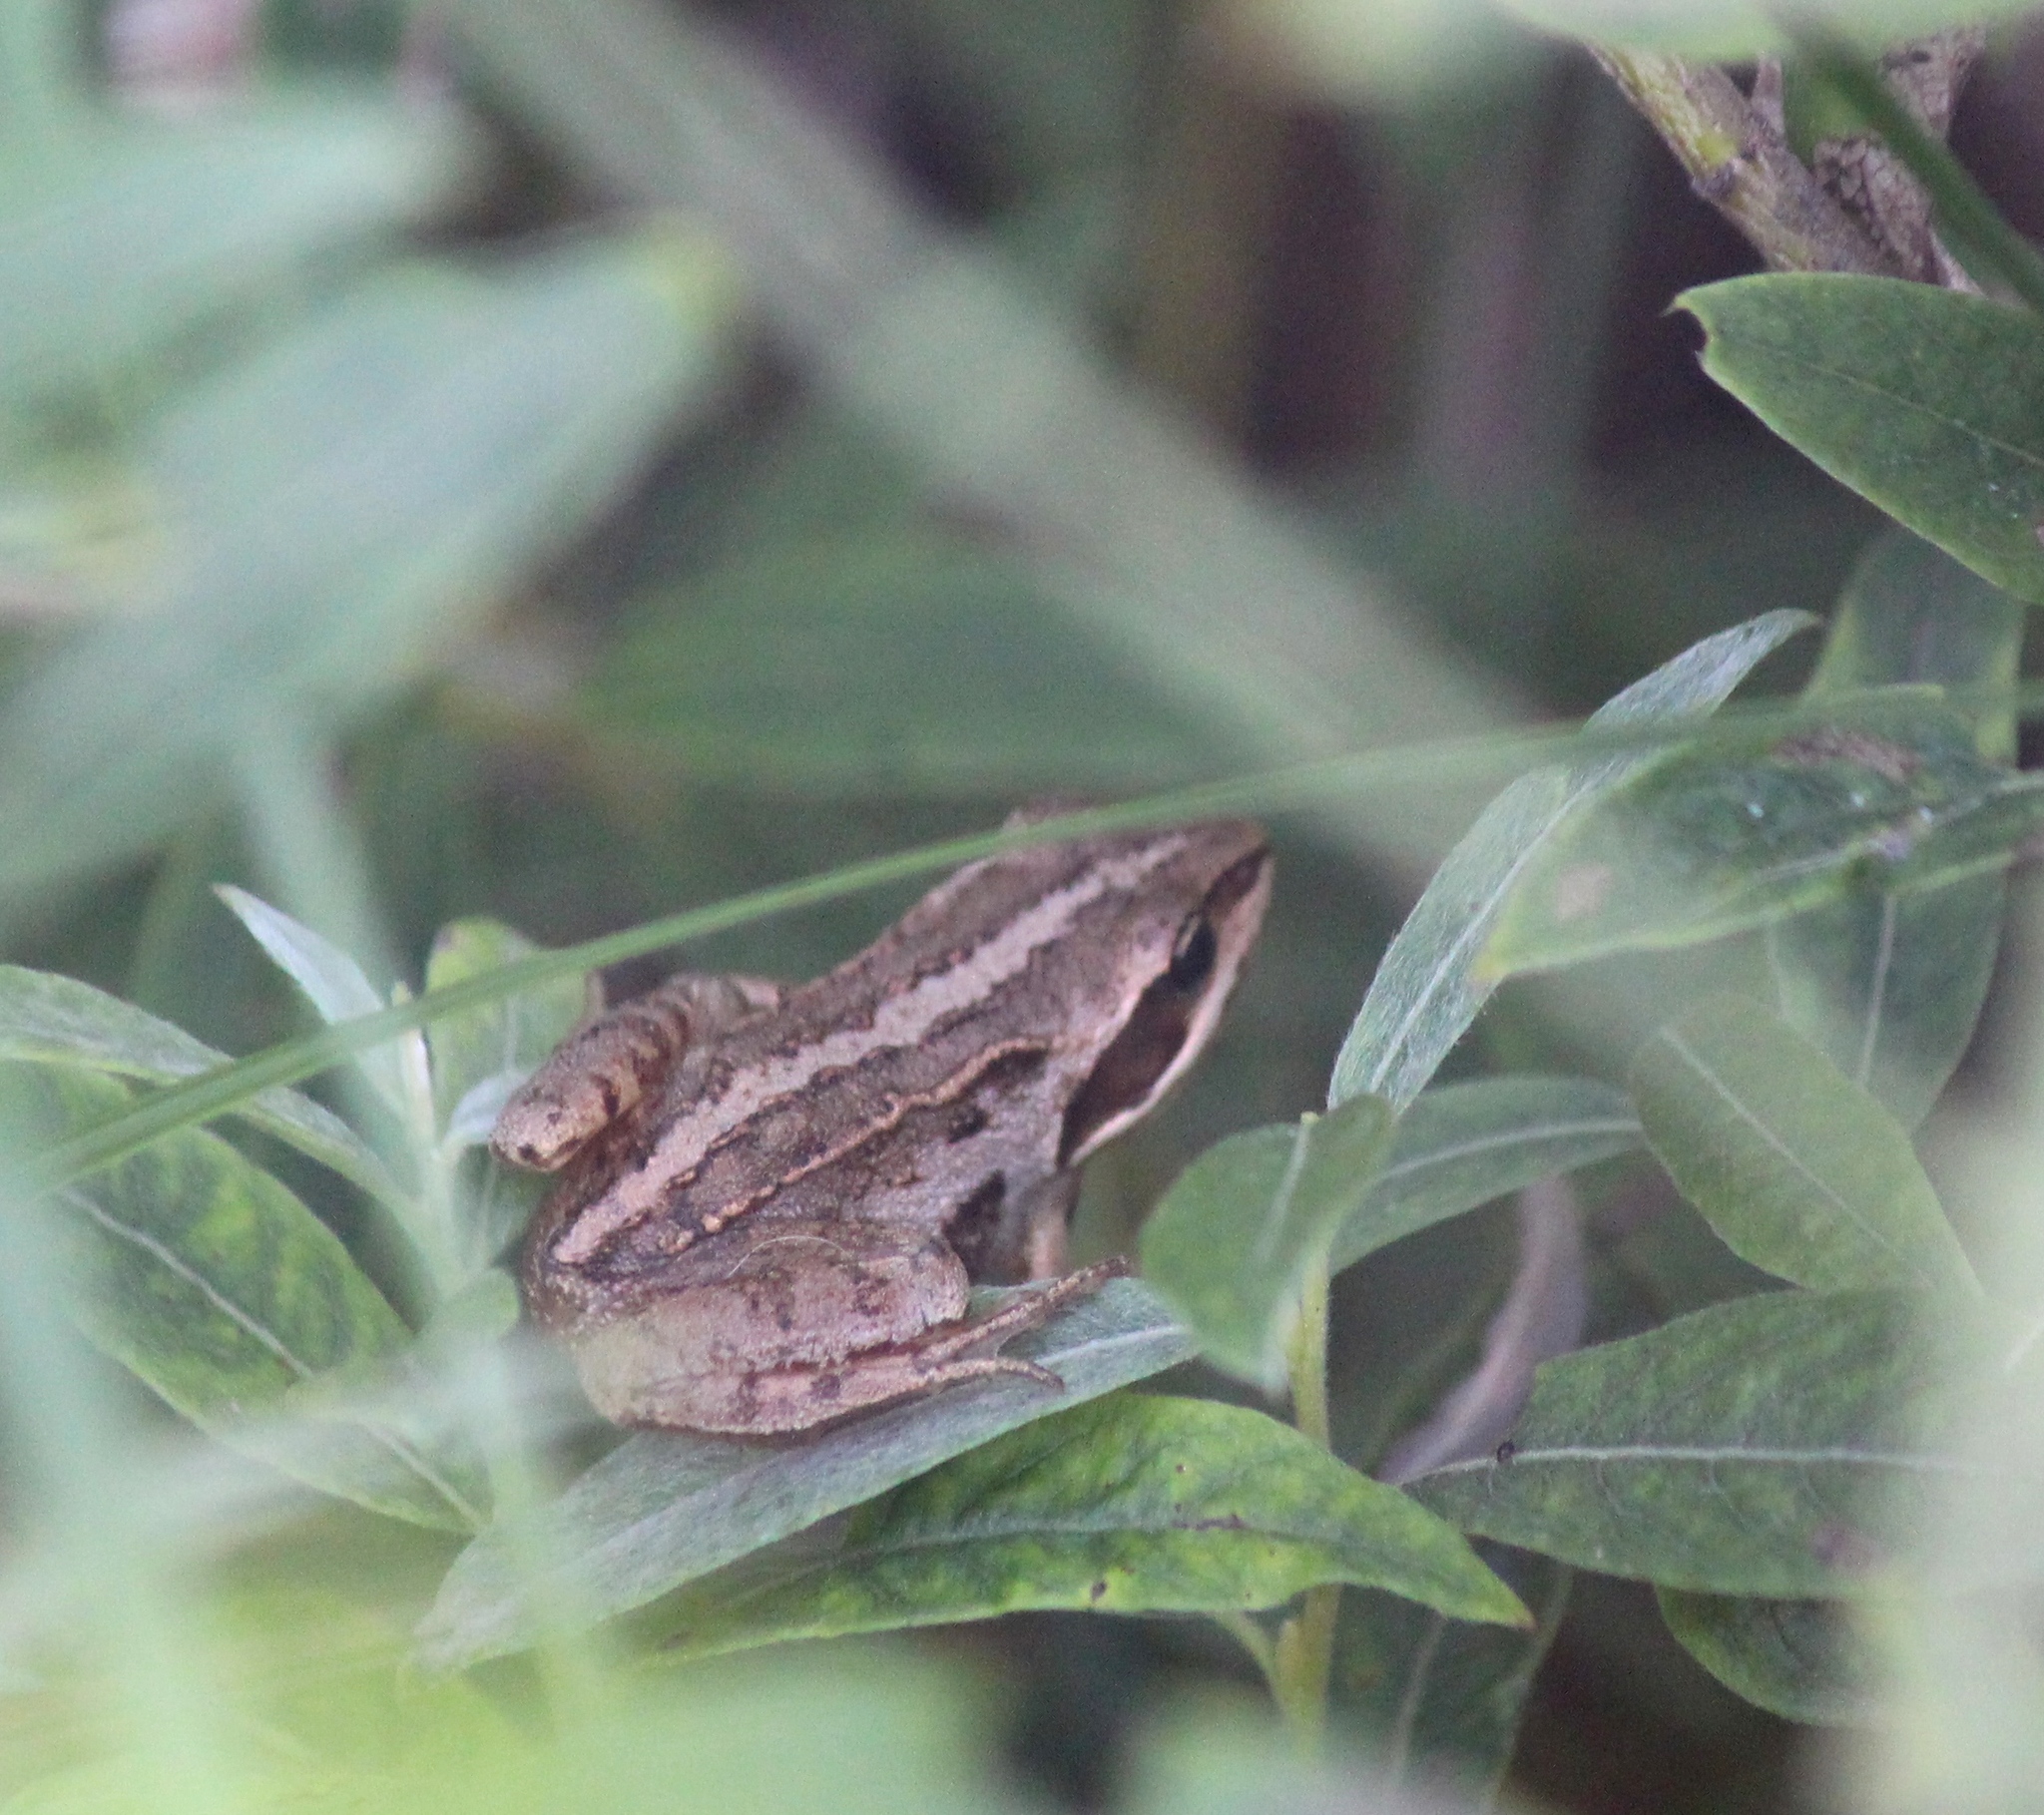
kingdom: Animalia
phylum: Chordata
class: Amphibia
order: Anura
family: Ranidae
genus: Rana
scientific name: Rana arvalis
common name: Moor frog
